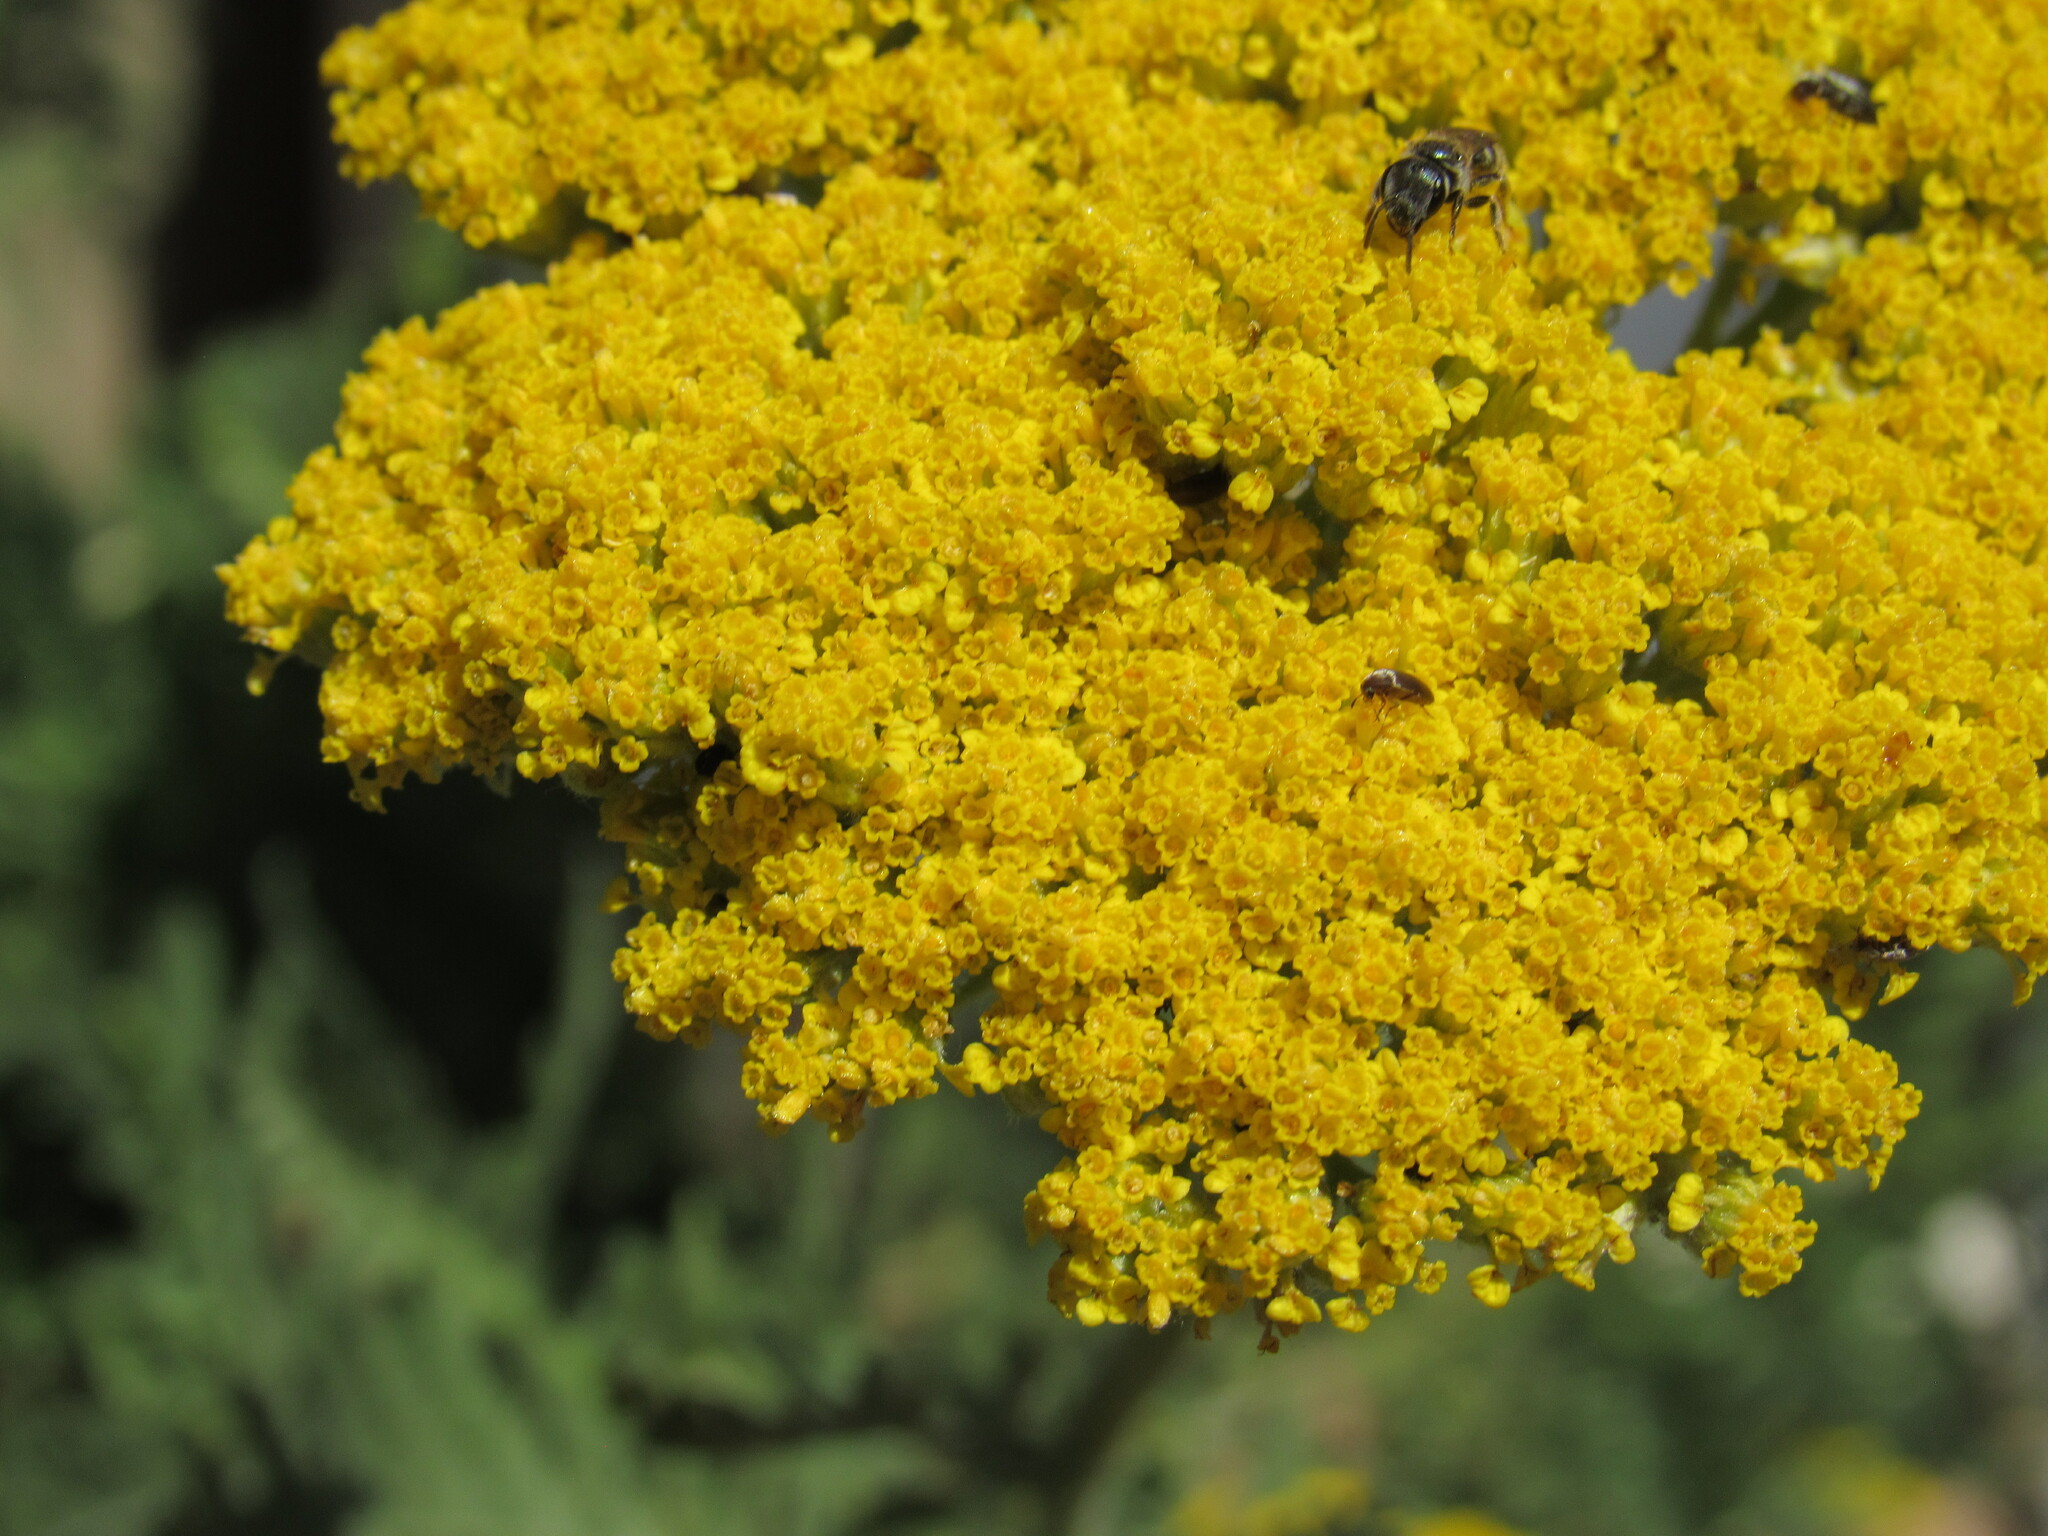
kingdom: Animalia
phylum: Arthropoda
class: Insecta
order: Hymenoptera
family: Halictidae
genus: Halictus
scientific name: Halictus tripartitus
